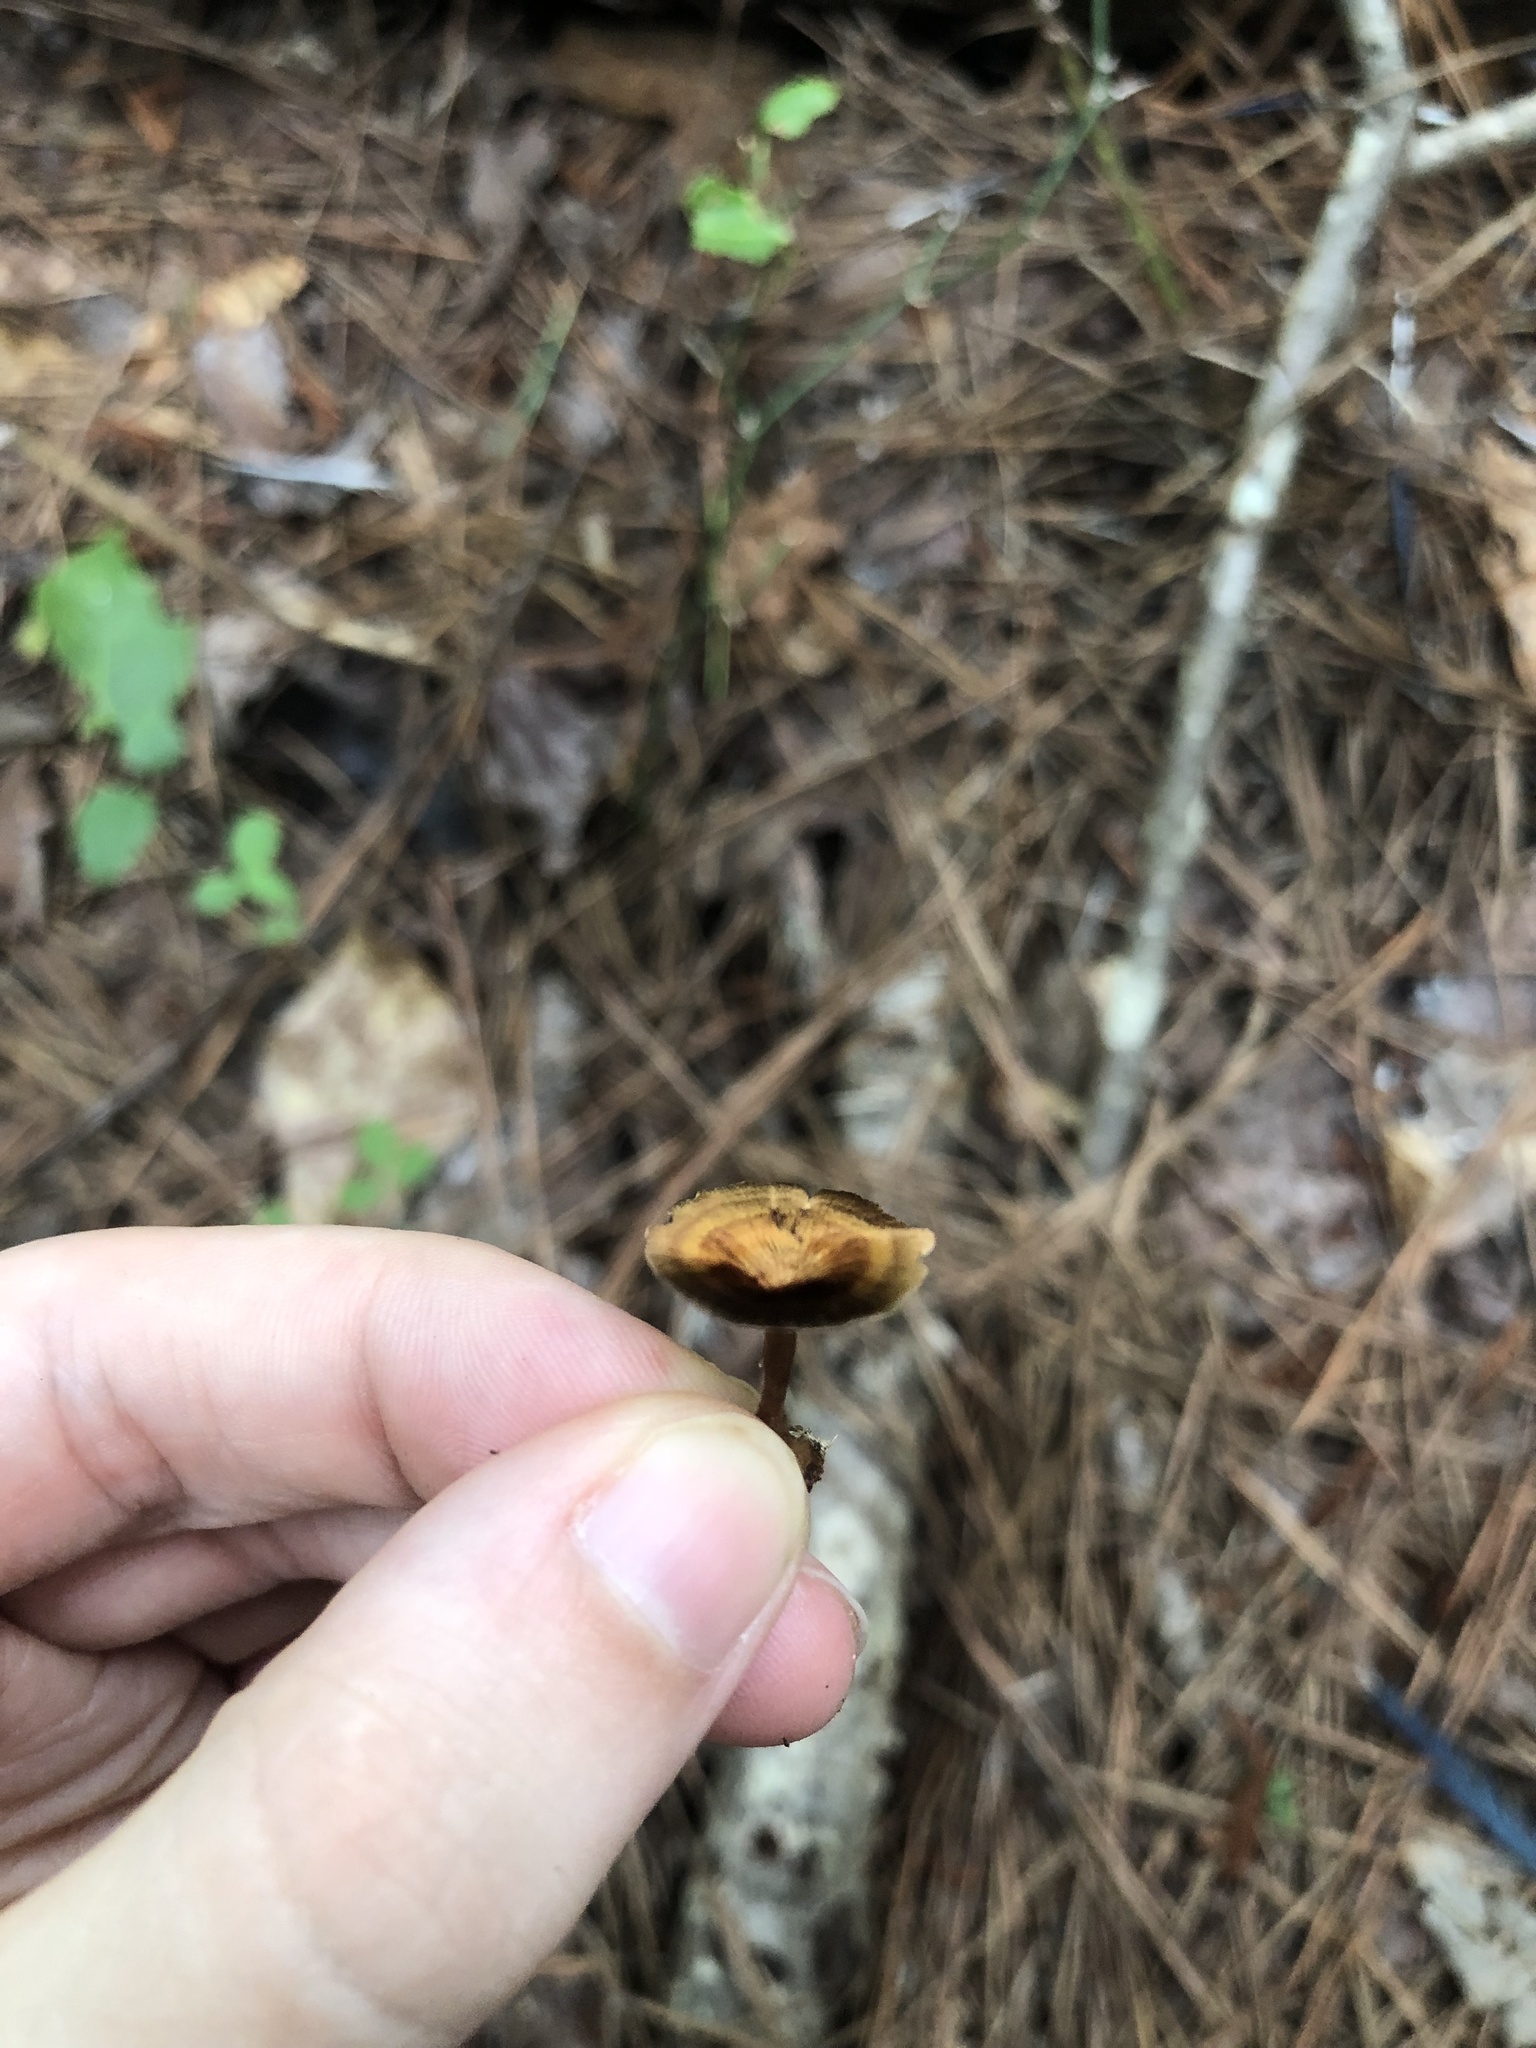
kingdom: Fungi
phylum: Basidiomycota
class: Agaricomycetes
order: Hymenochaetales
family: Hymenochaetaceae
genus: Coltricia
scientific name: Coltricia cinnamomea
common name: Shiny cinnamon polypore
